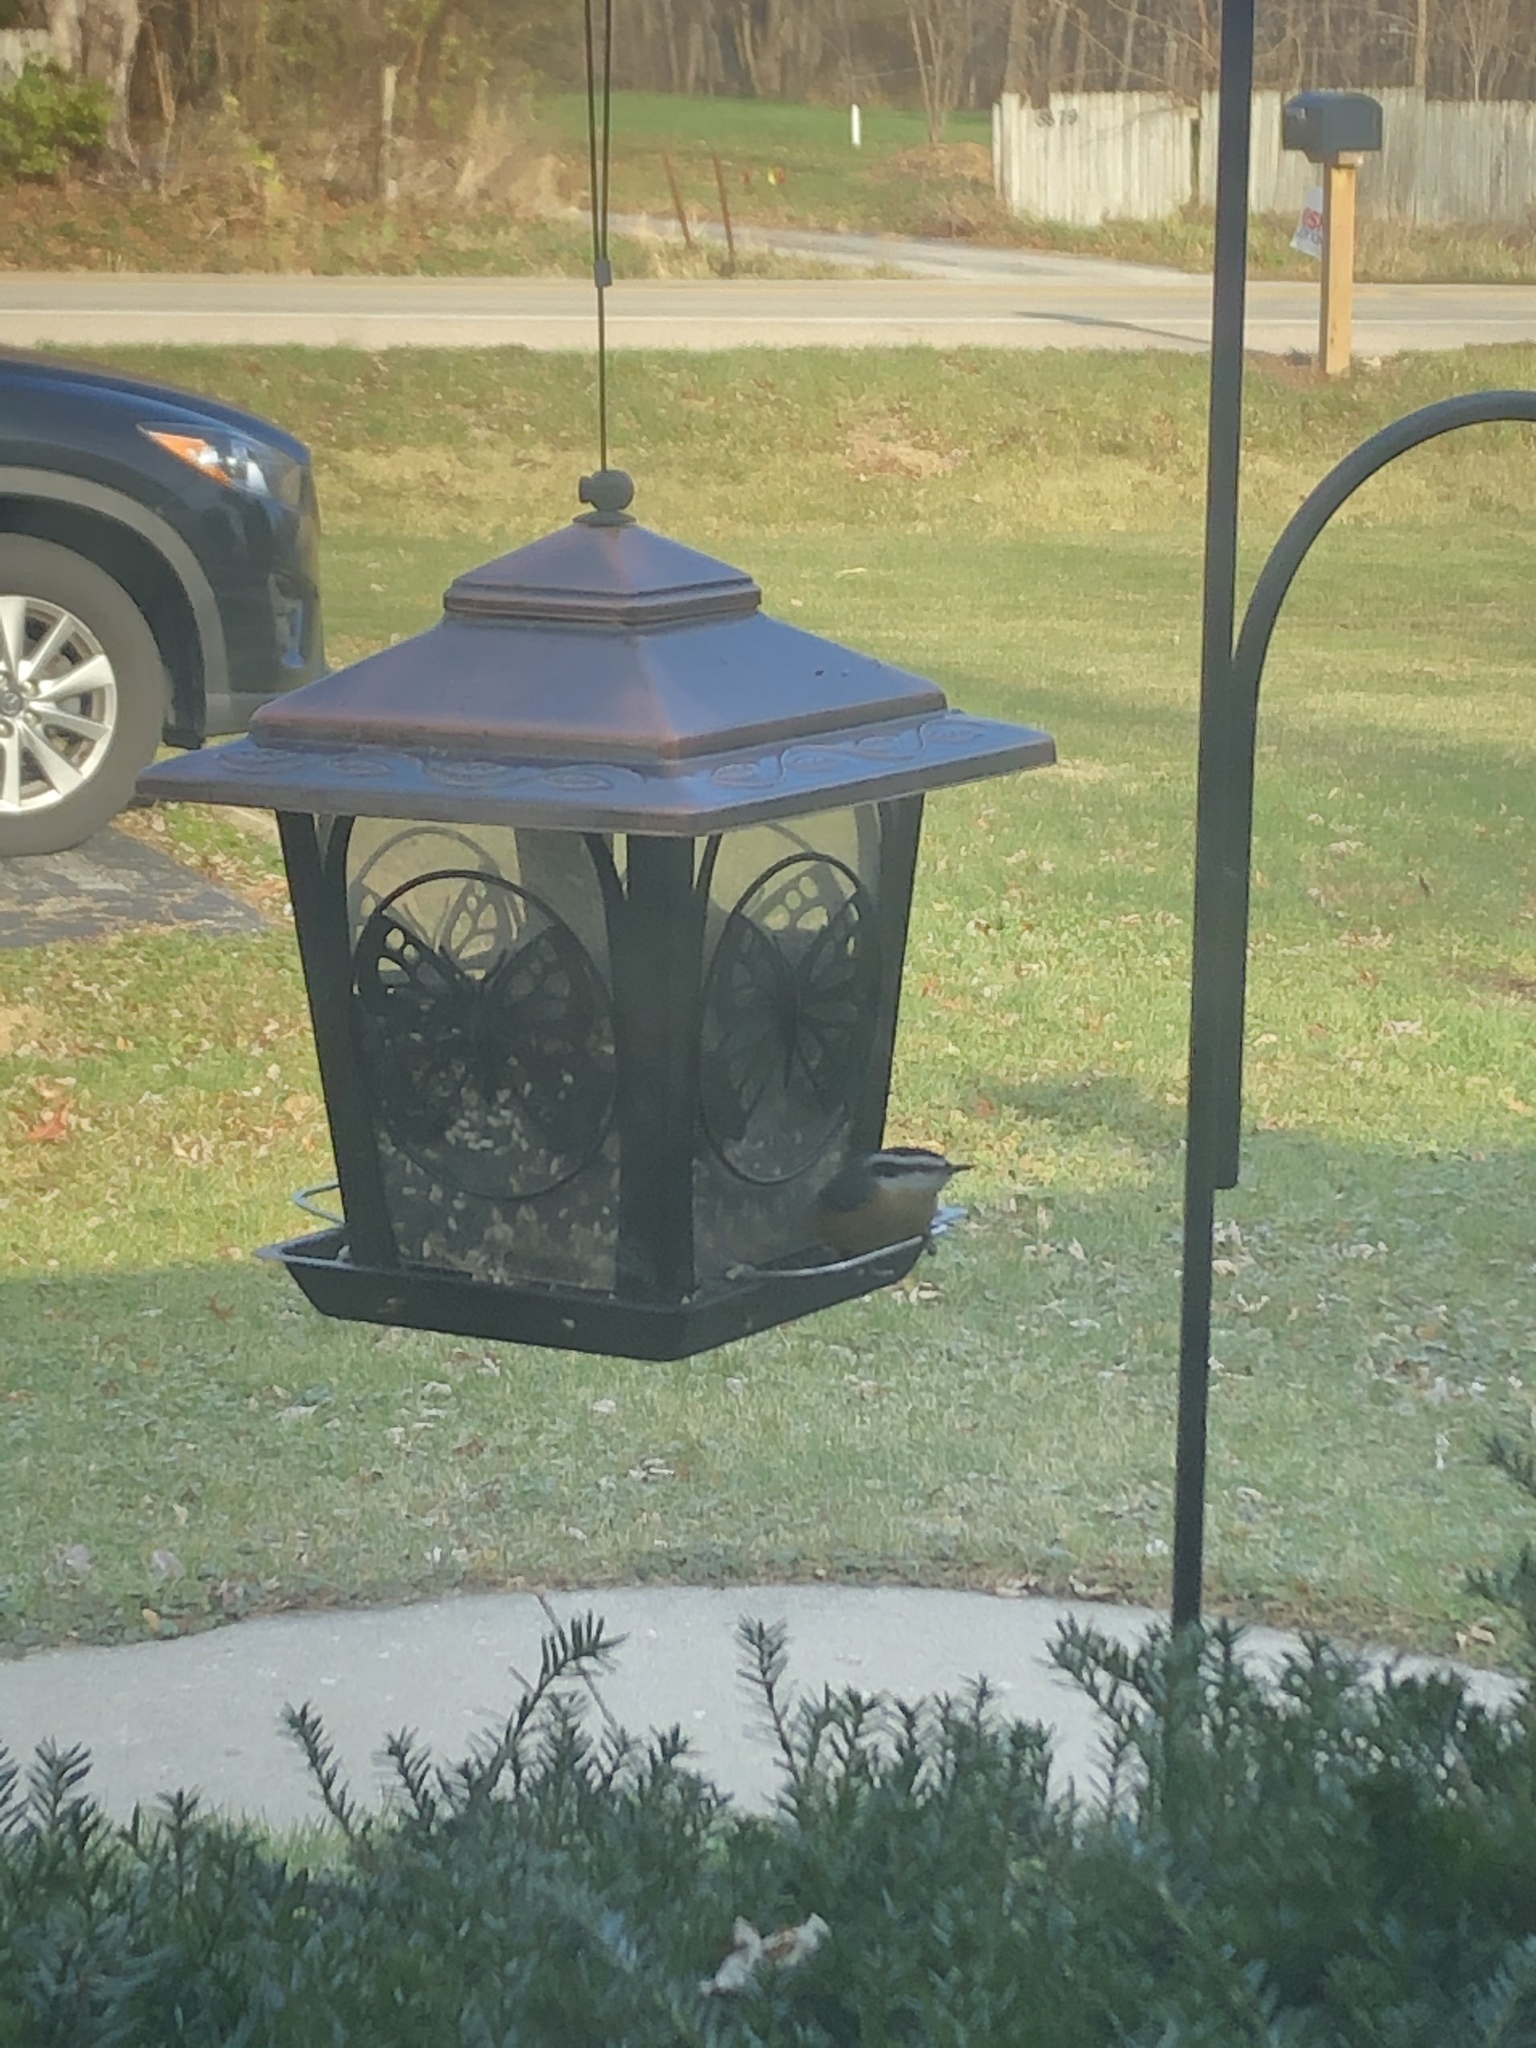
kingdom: Animalia
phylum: Chordata
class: Aves
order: Passeriformes
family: Sittidae
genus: Sitta
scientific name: Sitta canadensis
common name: Red-breasted nuthatch
